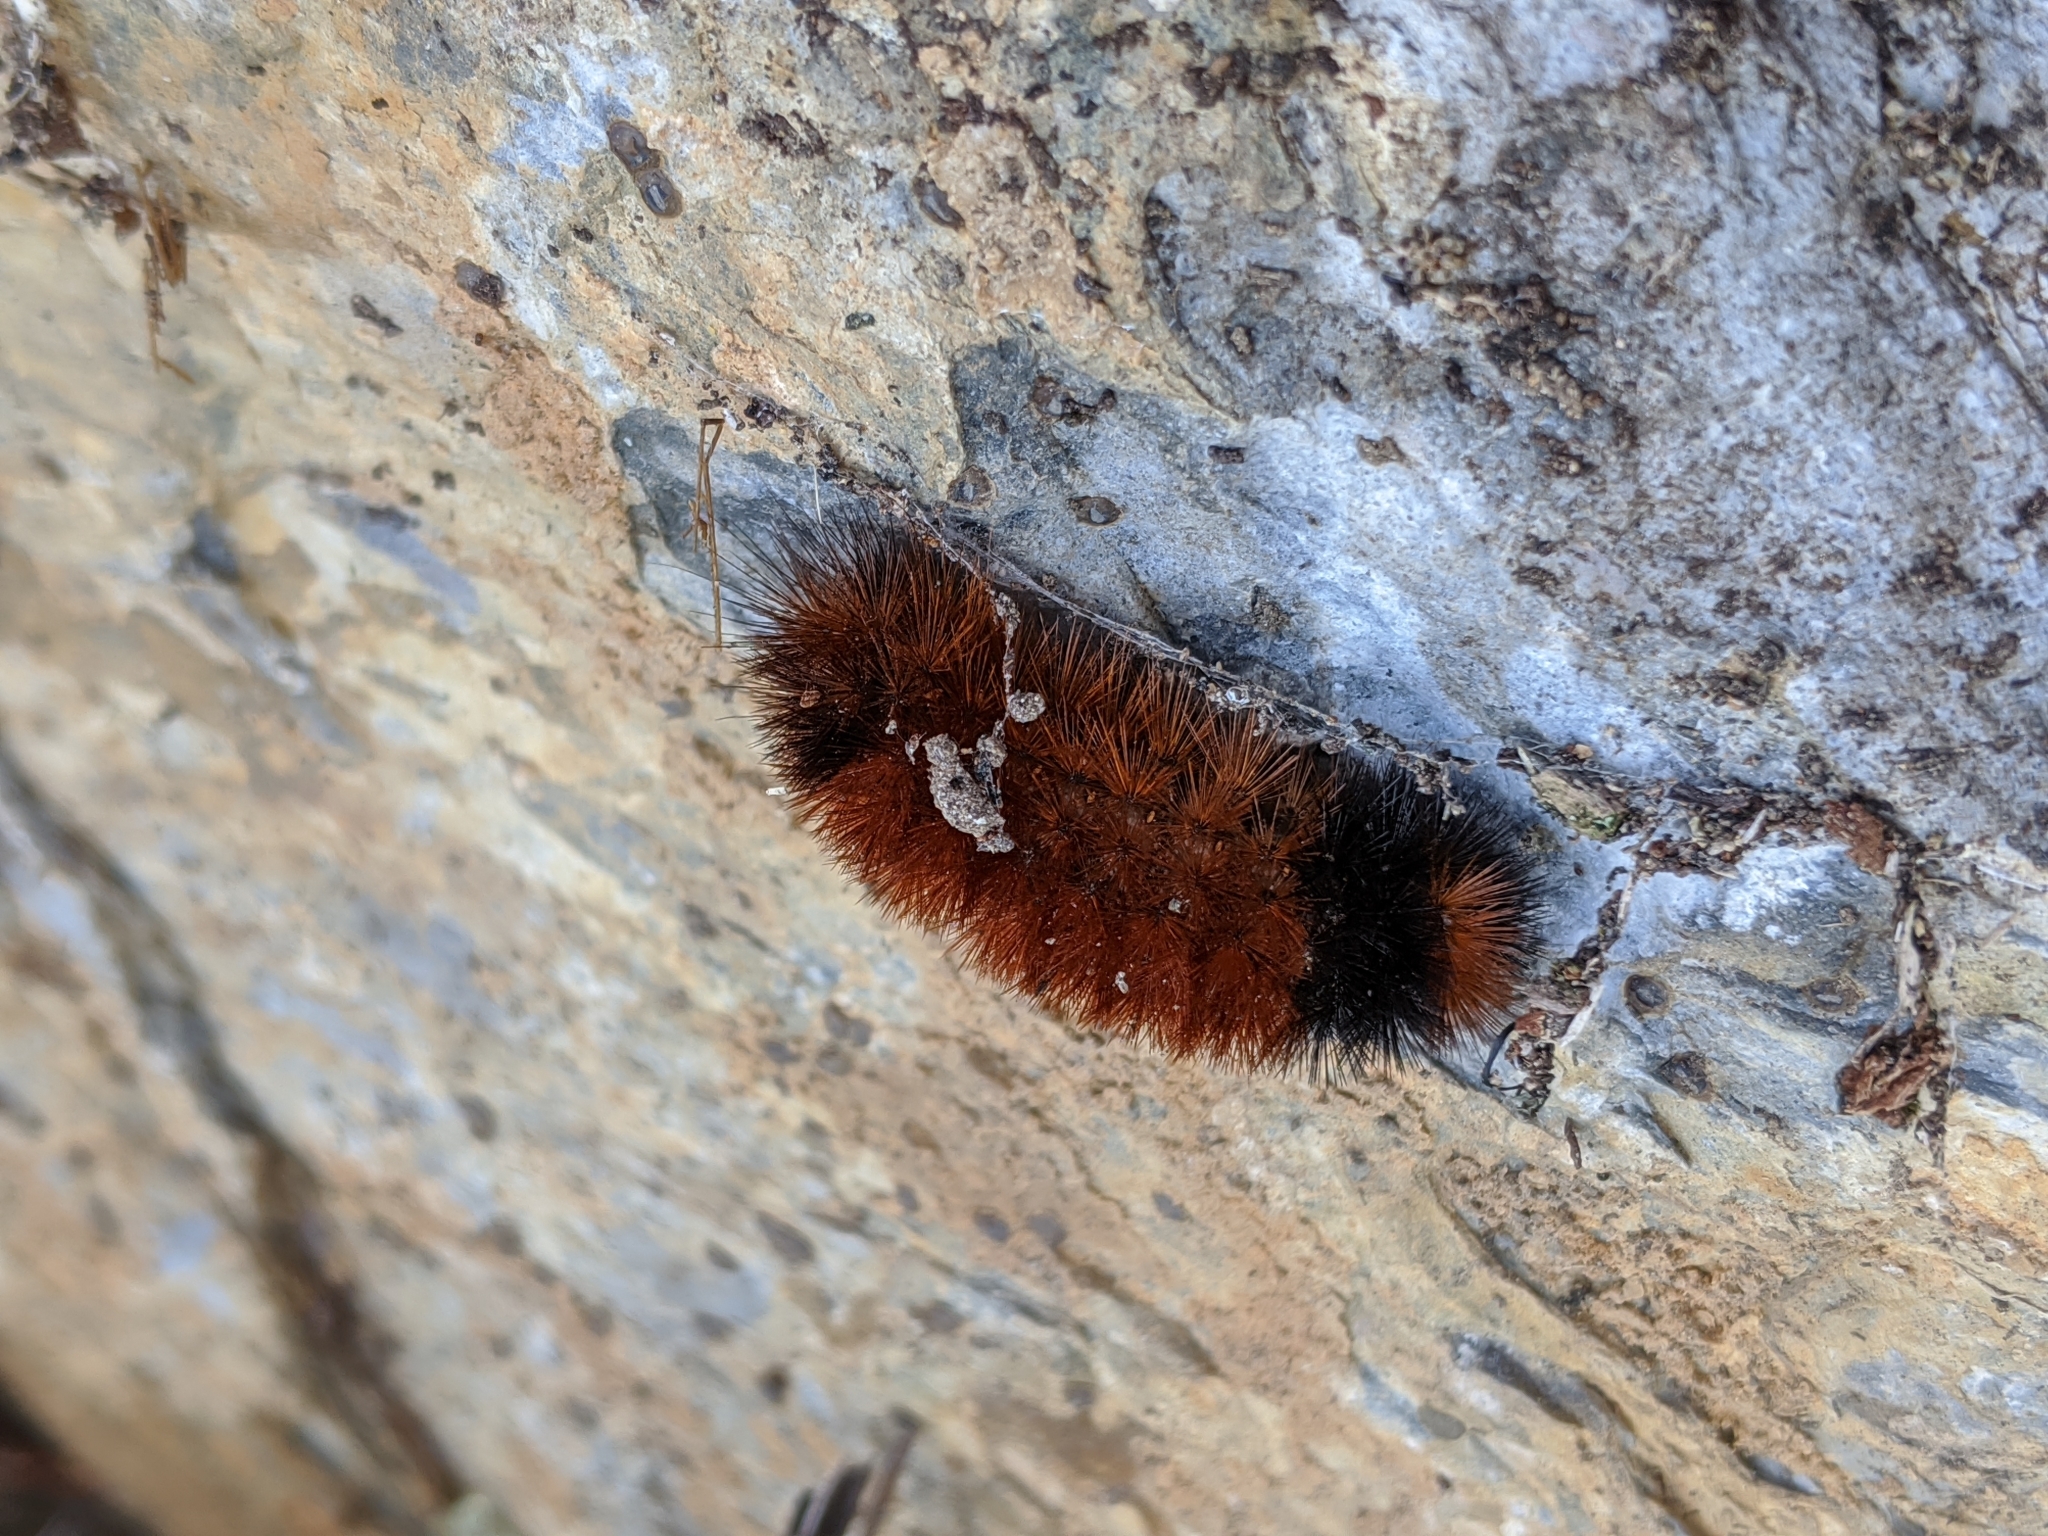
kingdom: Animalia
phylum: Arthropoda
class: Insecta
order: Lepidoptera
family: Erebidae
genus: Pyrrharctia
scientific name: Pyrrharctia isabella
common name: Isabella tiger moth
